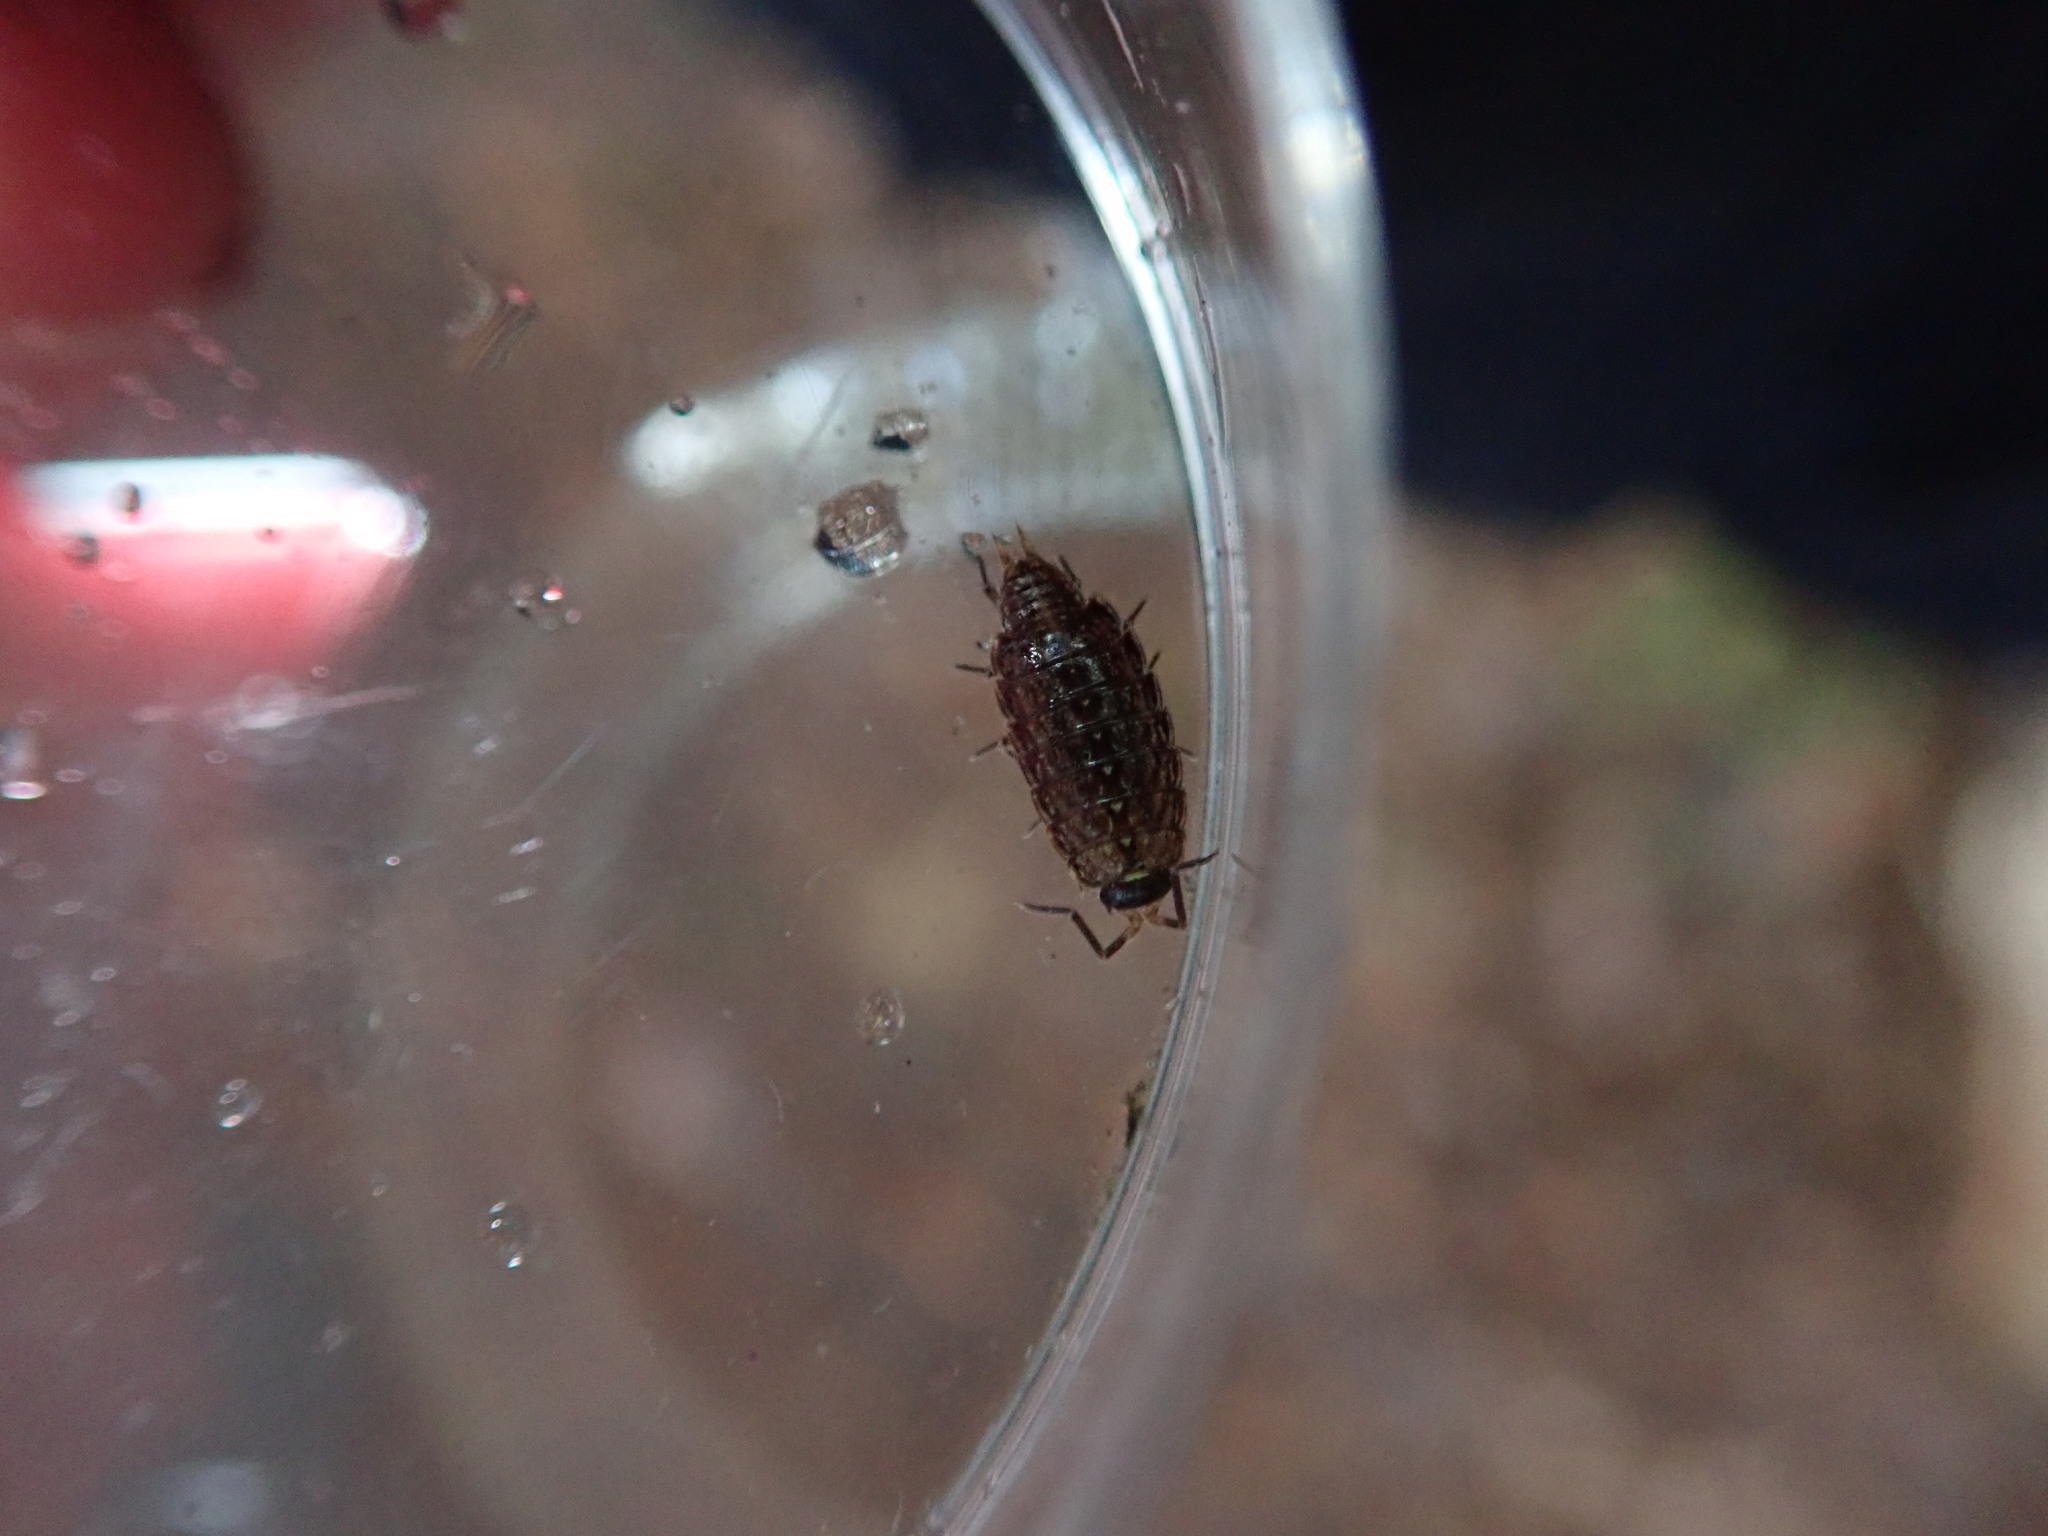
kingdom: Animalia
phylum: Arthropoda
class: Malacostraca
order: Isopoda
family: Philosciidae
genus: Philoscia
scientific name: Philoscia muscorum
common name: Common striped woodlouse
